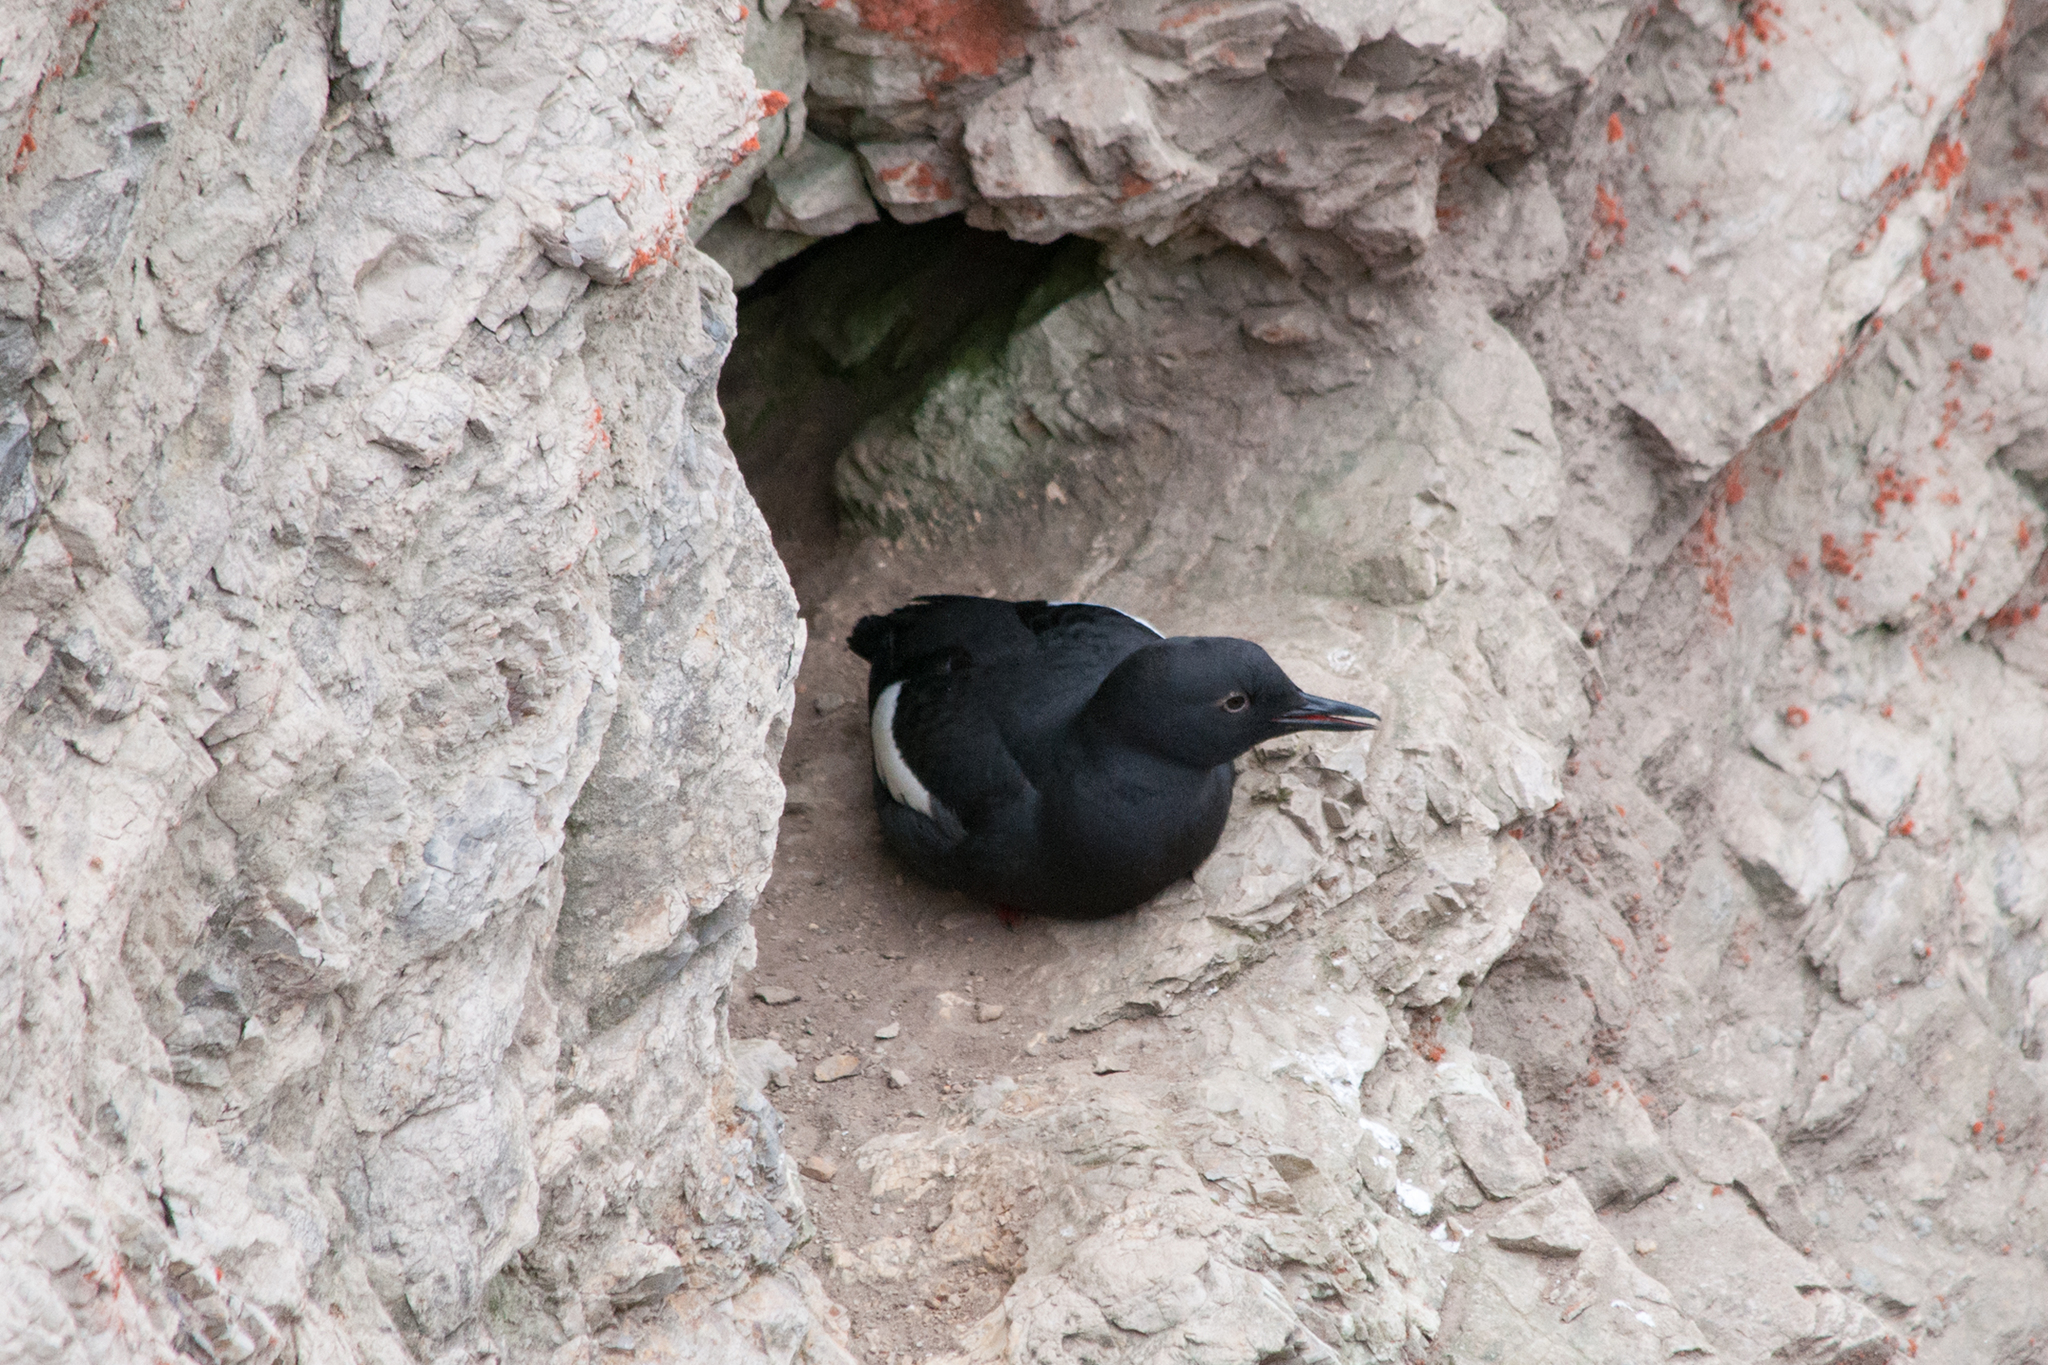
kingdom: Animalia
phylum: Chordata
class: Aves
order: Charadriiformes
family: Alcidae
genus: Cepphus
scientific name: Cepphus columba
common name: Pigeon guillemot
